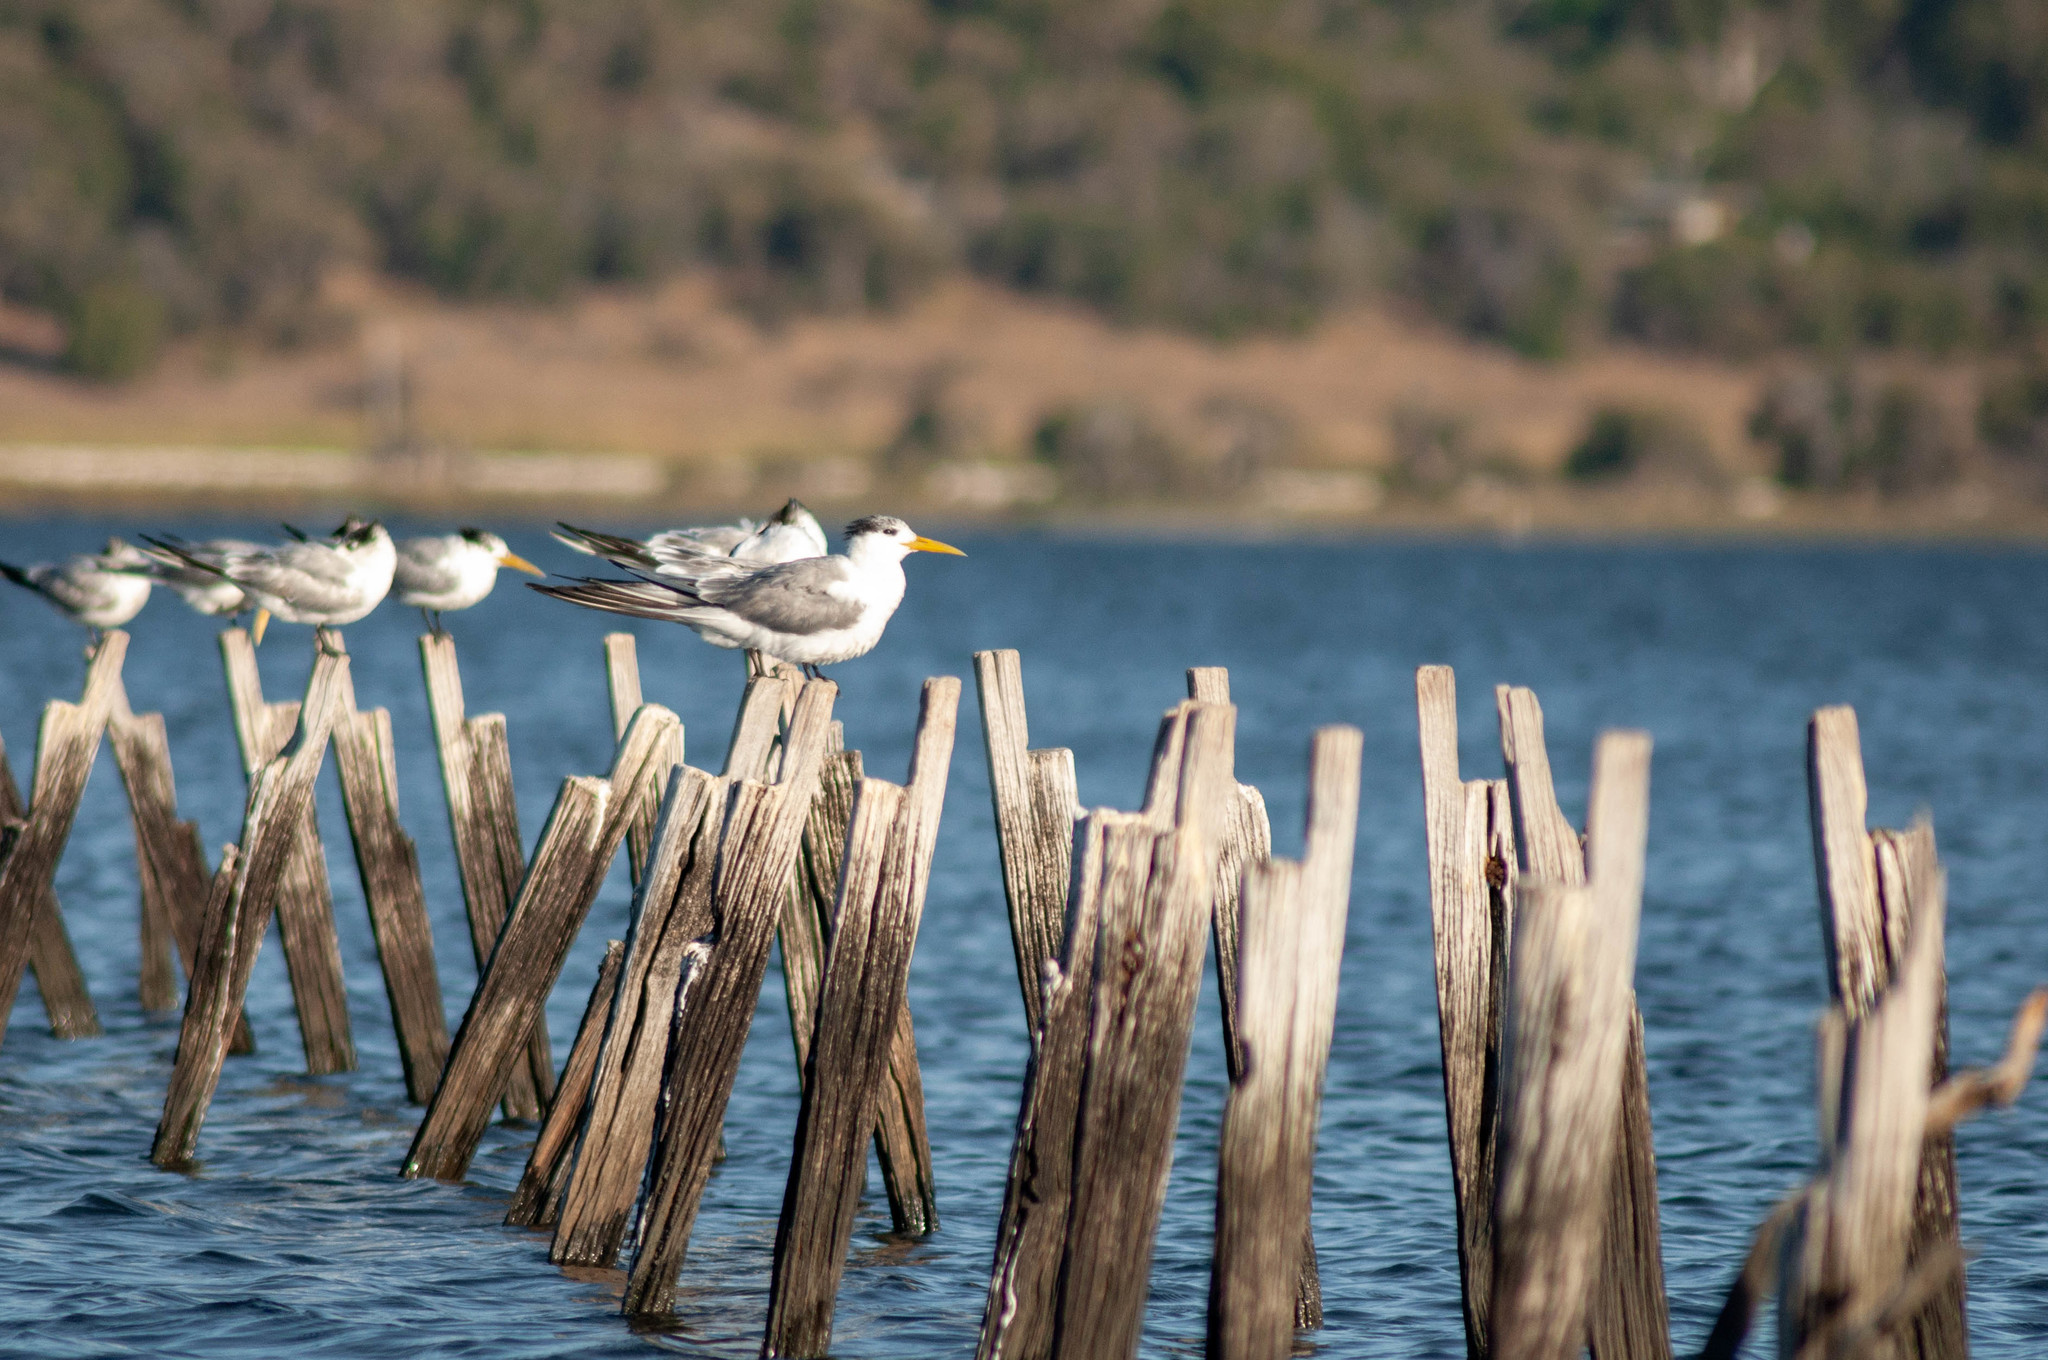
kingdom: Animalia
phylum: Chordata
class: Aves
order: Charadriiformes
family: Laridae
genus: Thalasseus
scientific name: Thalasseus bergii
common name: Greater crested tern
